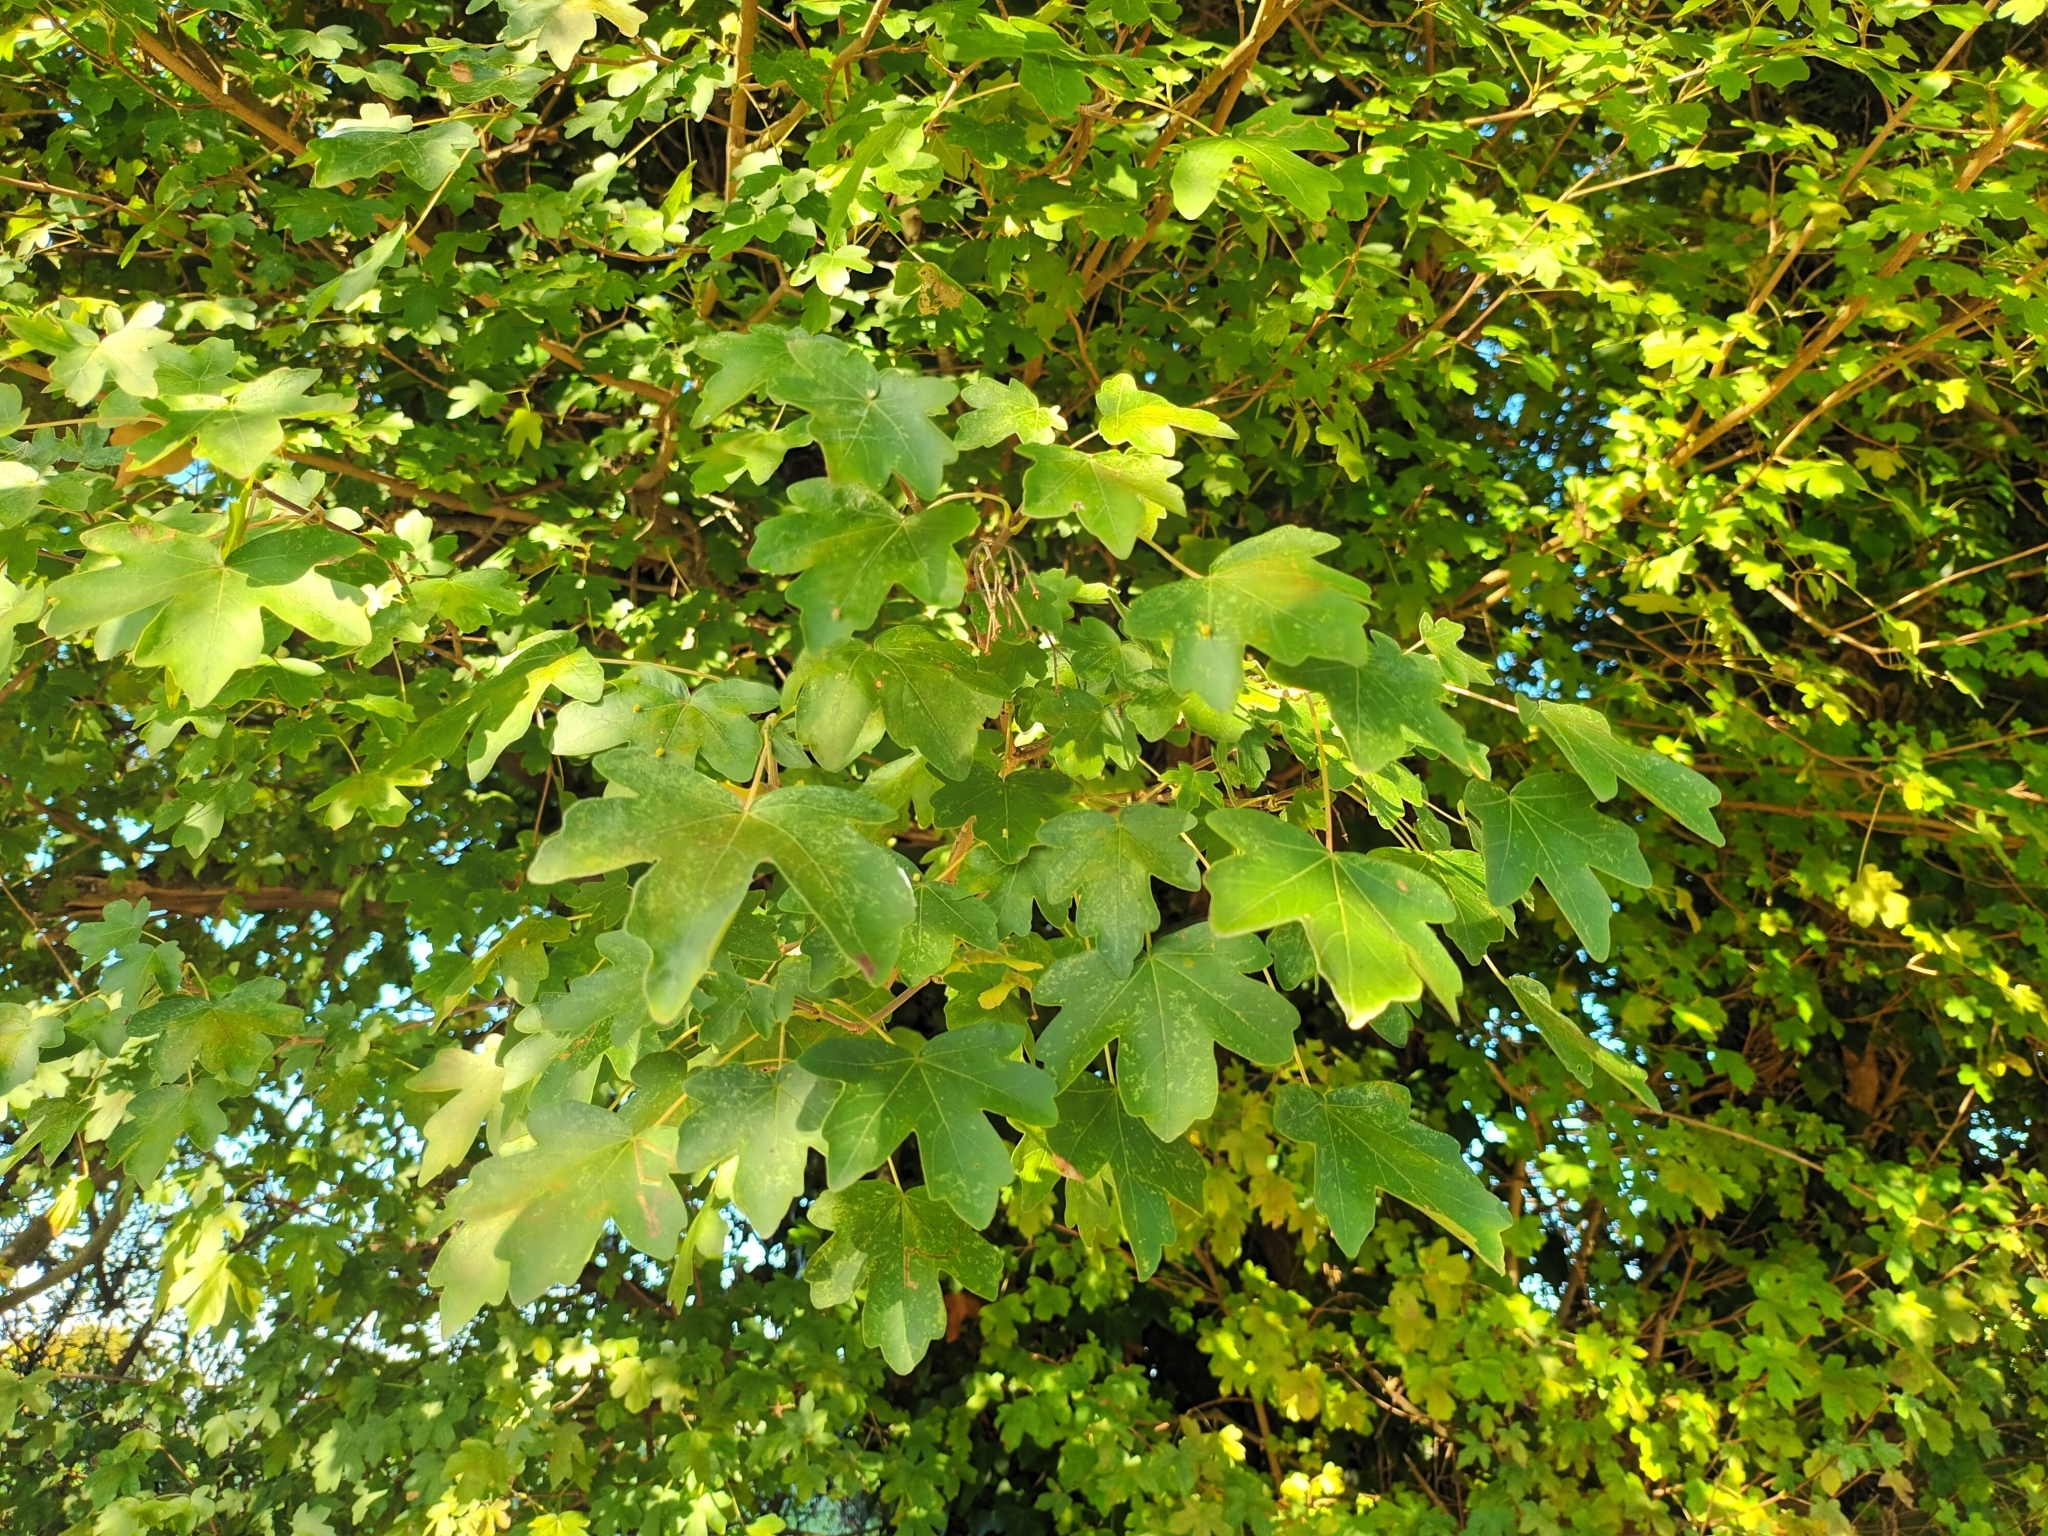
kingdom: Plantae
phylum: Tracheophyta
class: Magnoliopsida
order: Sapindales
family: Sapindaceae
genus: Acer
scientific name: Acer campestre
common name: Field maple
